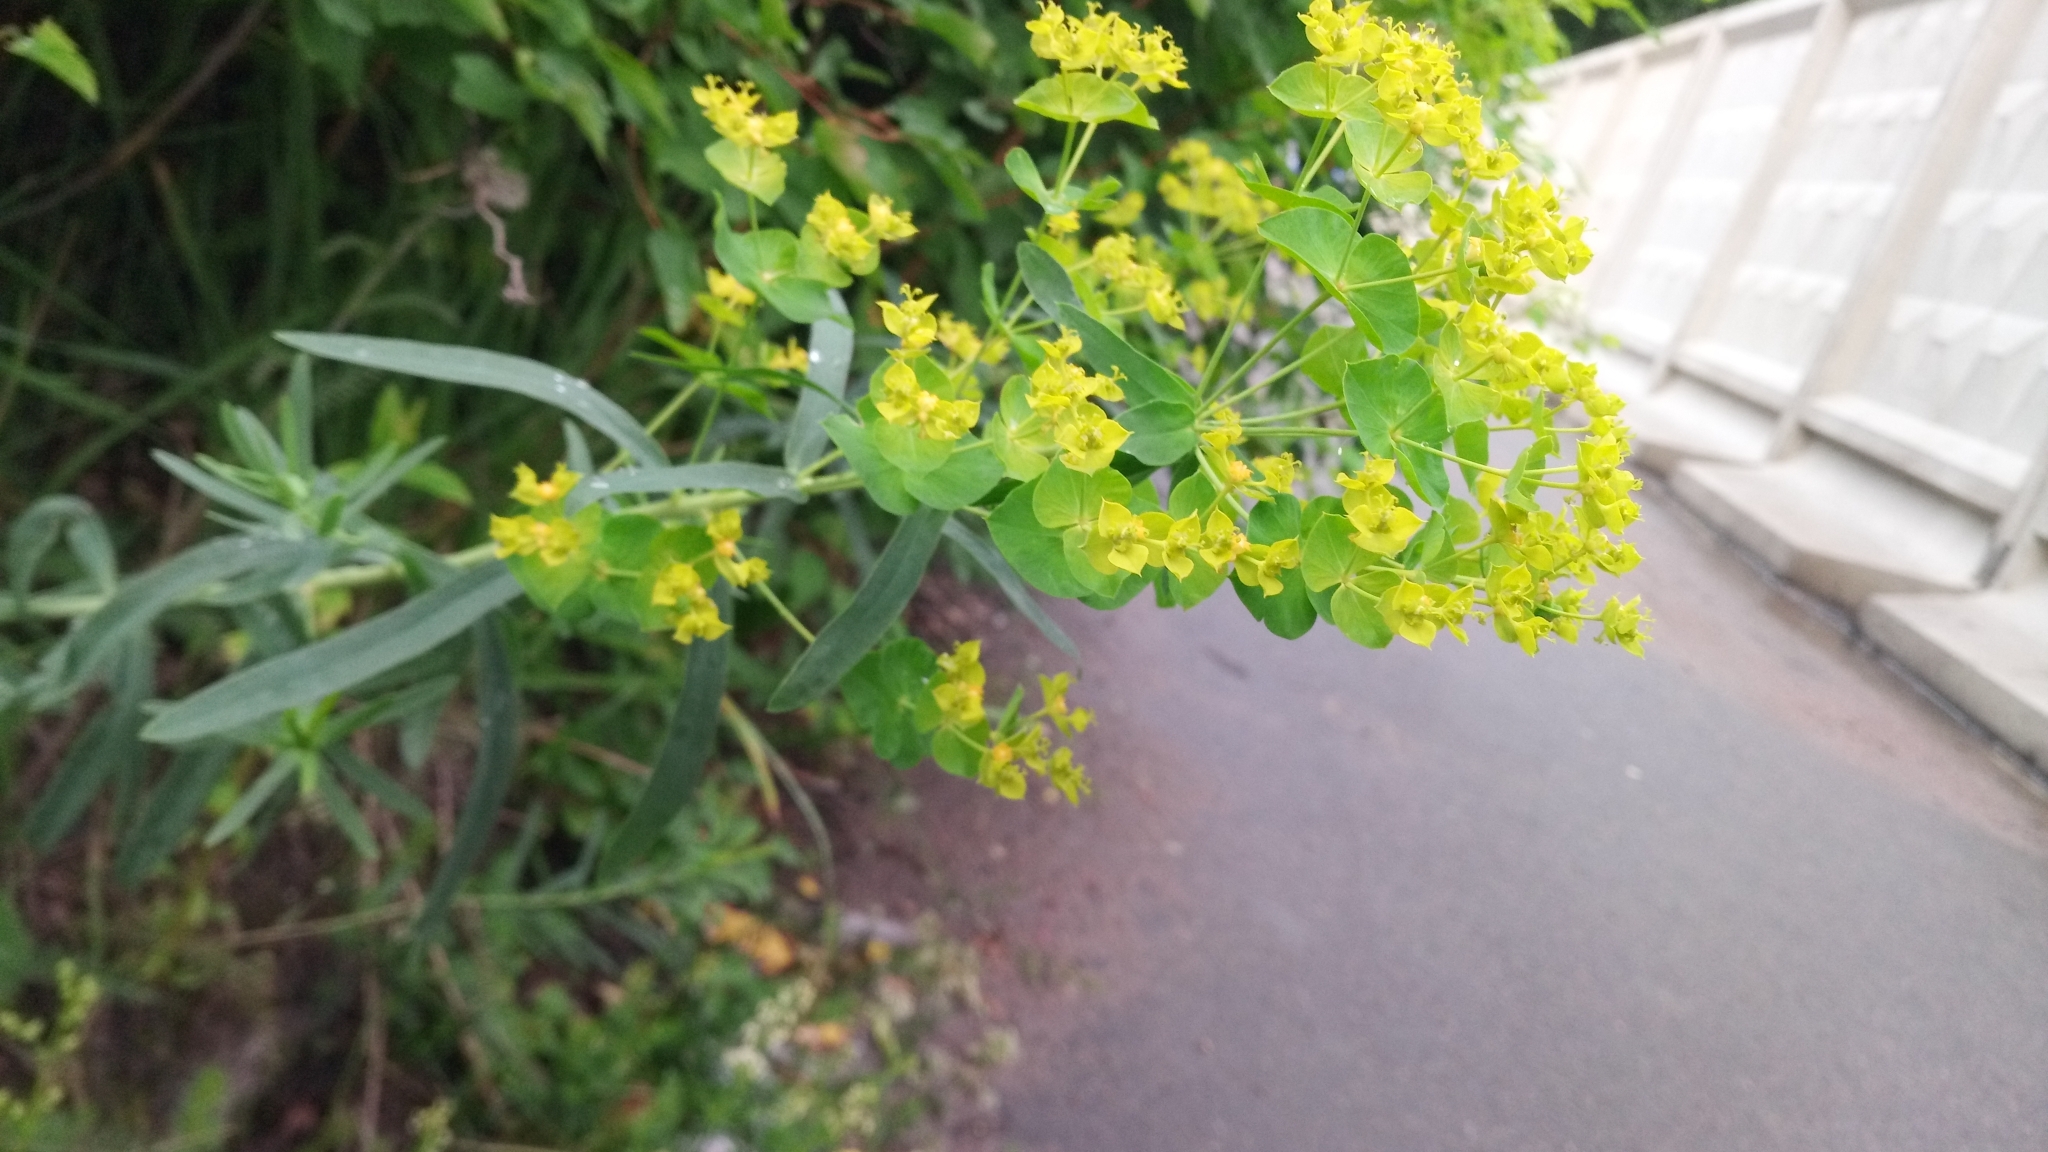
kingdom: Plantae
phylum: Tracheophyta
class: Magnoliopsida
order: Malpighiales
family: Euphorbiaceae
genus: Euphorbia
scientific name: Euphorbia virgata
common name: Leafy spurge
